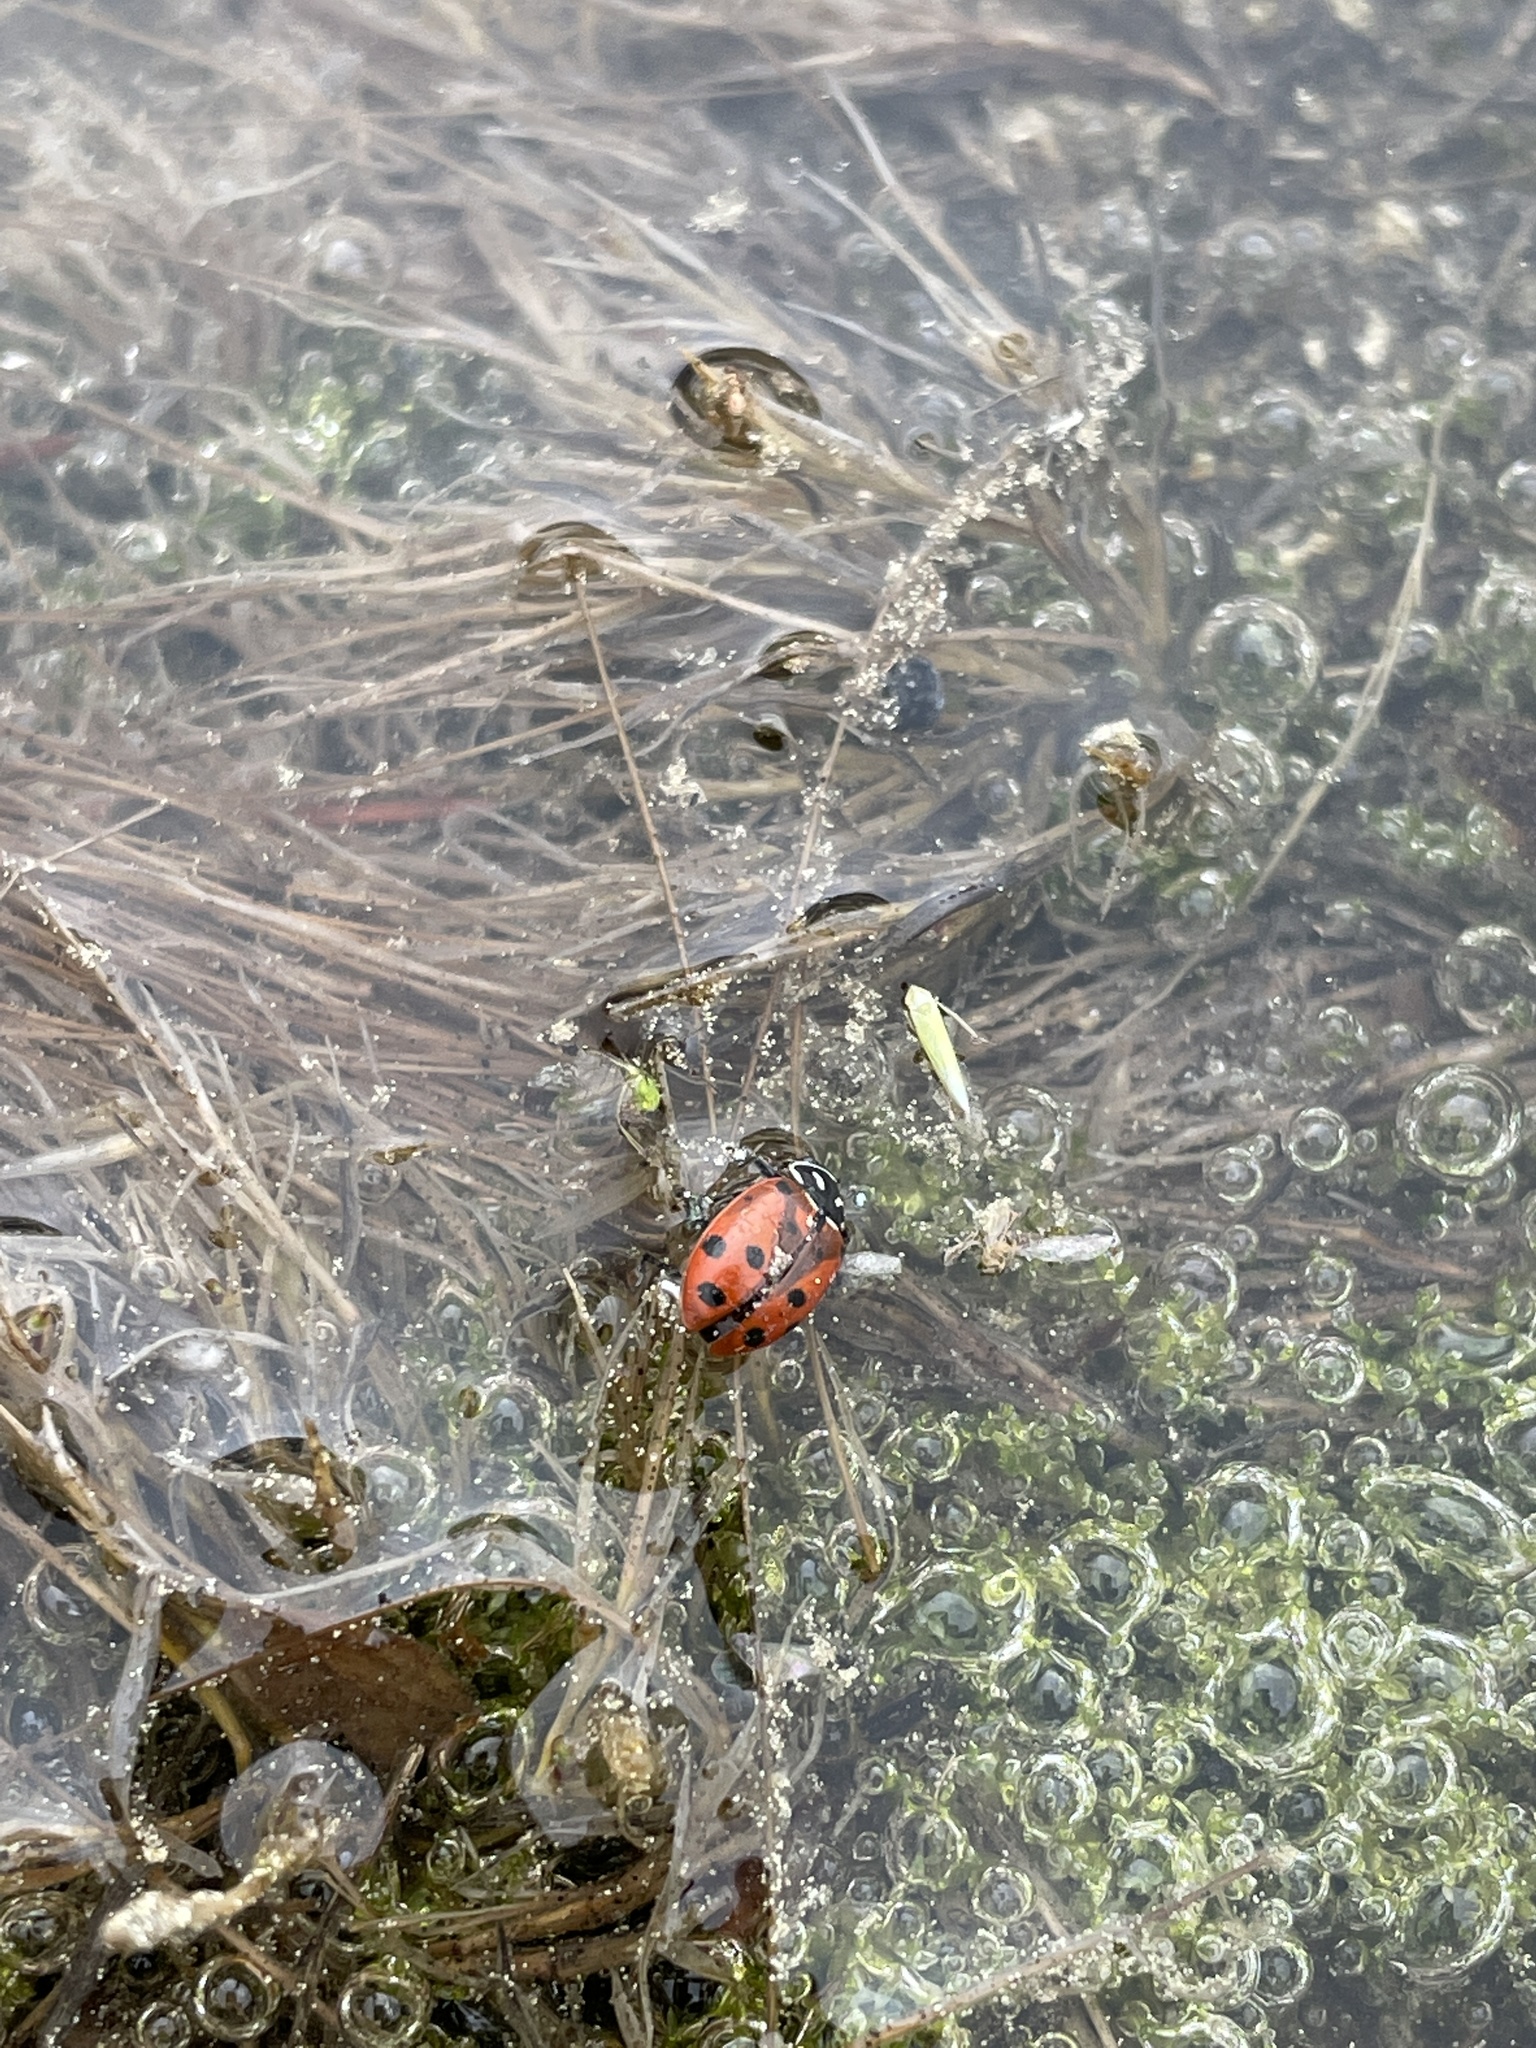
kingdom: Animalia
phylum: Arthropoda
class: Insecta
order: Coleoptera
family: Coccinellidae
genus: Hippodamia
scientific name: Hippodamia convergens
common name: Convergent lady beetle
